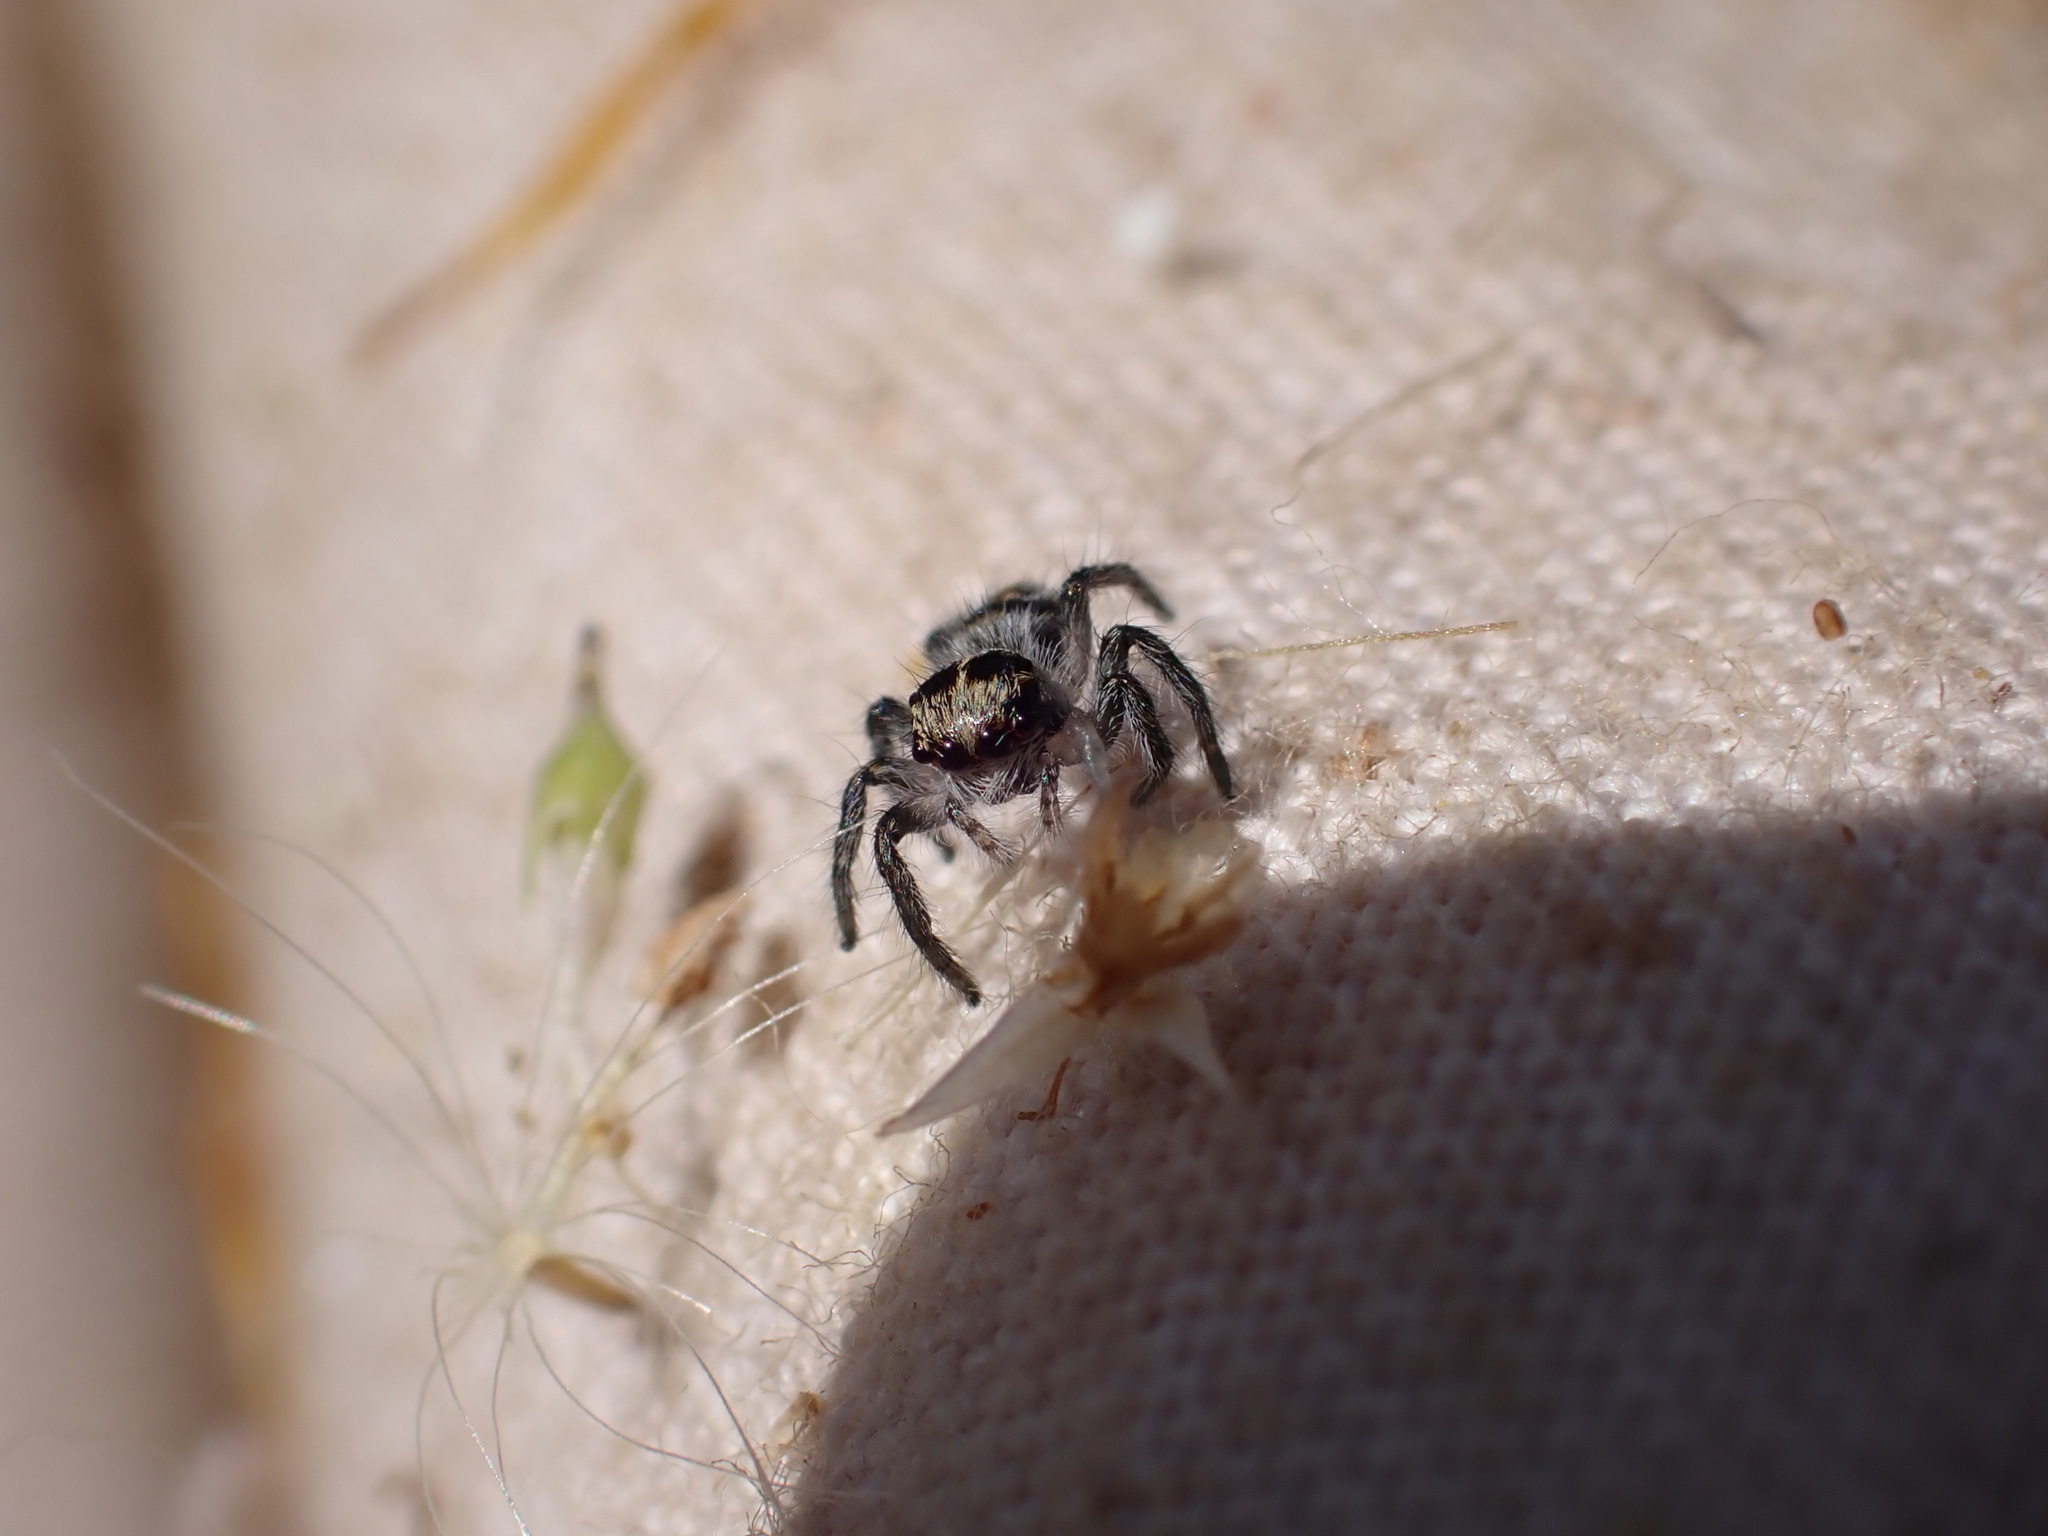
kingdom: Animalia
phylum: Arthropoda
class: Arachnida
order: Araneae
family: Salticidae
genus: Philaeus
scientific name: Philaeus chrysops
